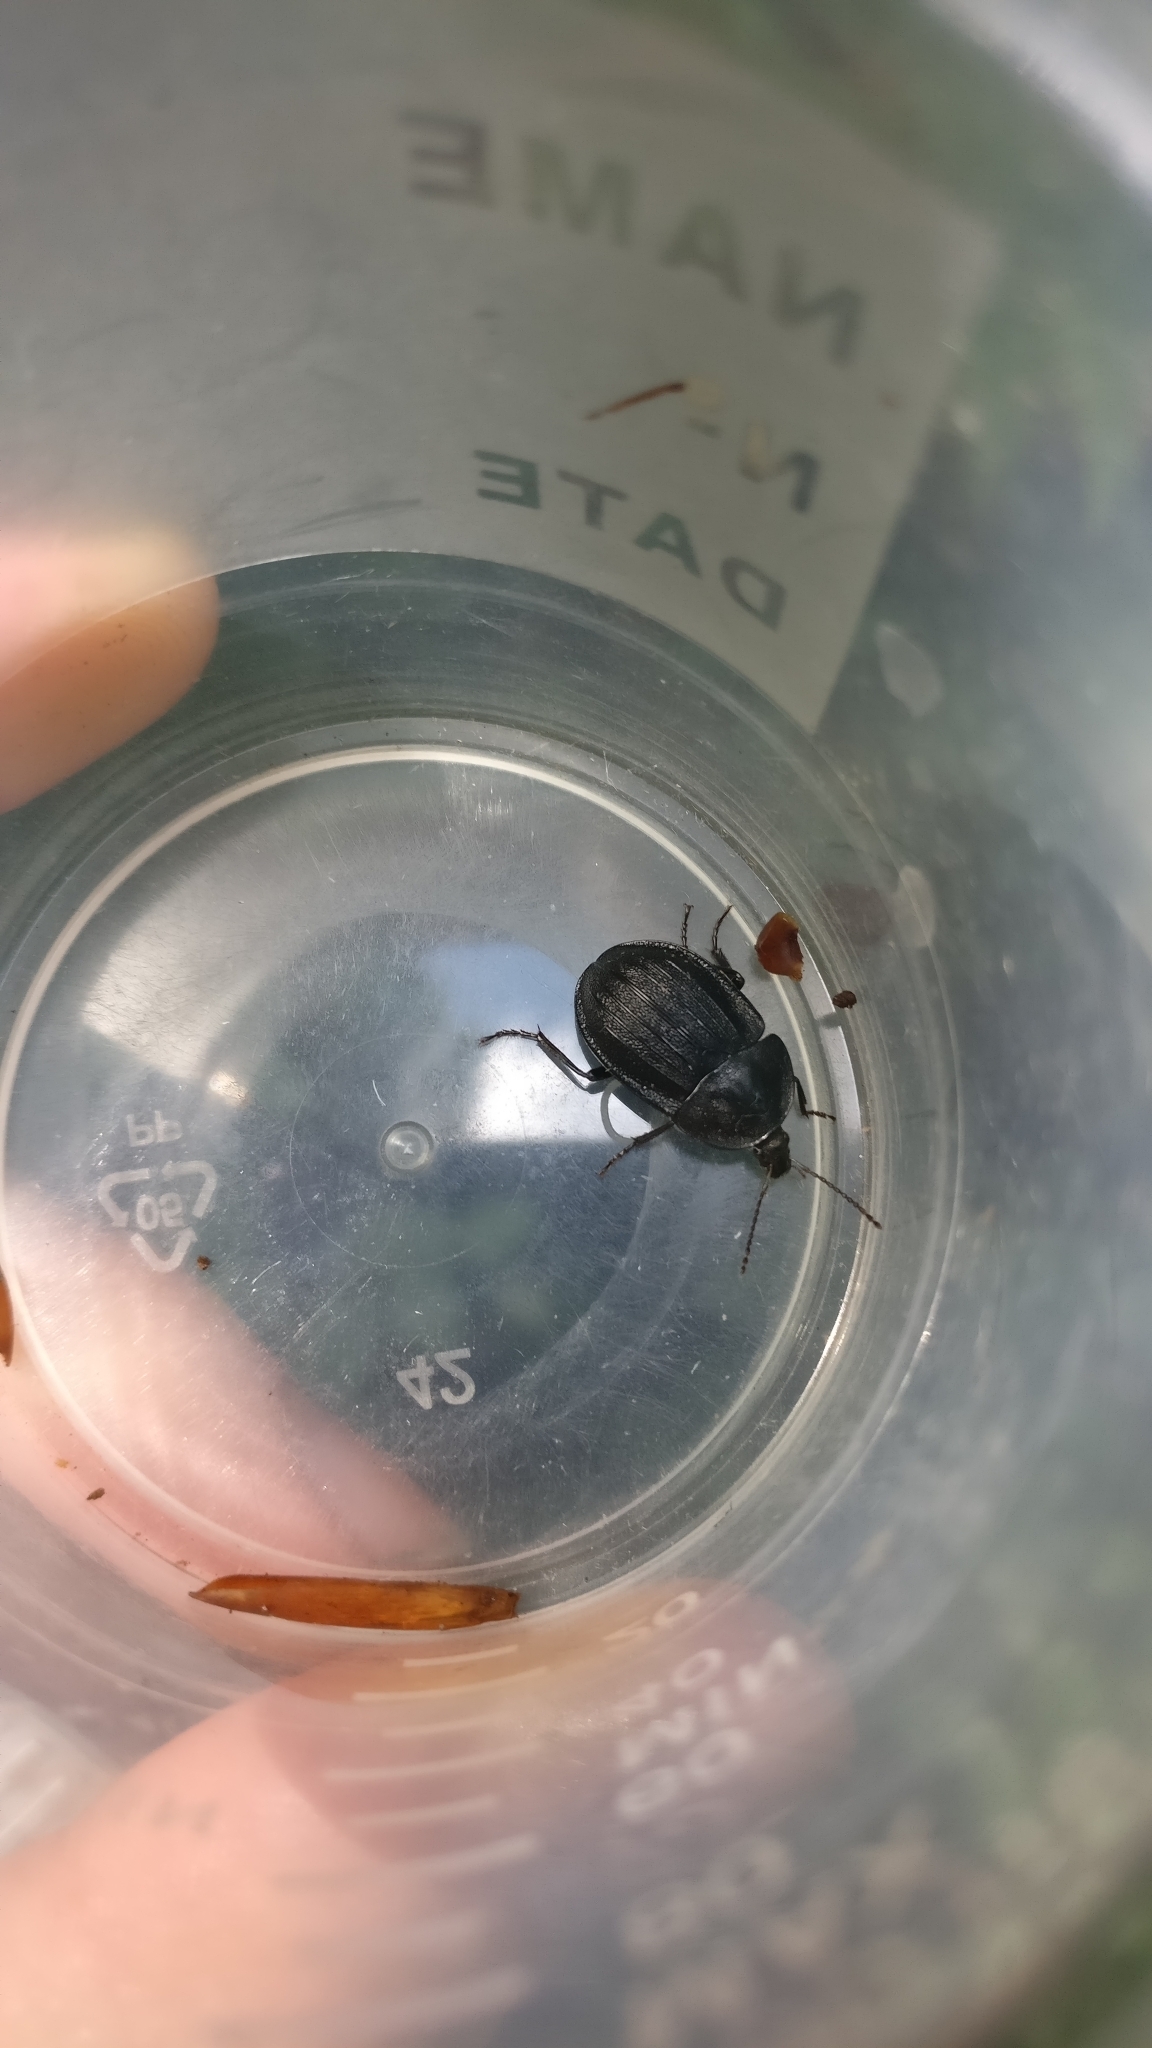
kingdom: Animalia
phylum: Arthropoda
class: Insecta
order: Coleoptera
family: Staphylinidae
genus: Silpha
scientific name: Silpha atrata
